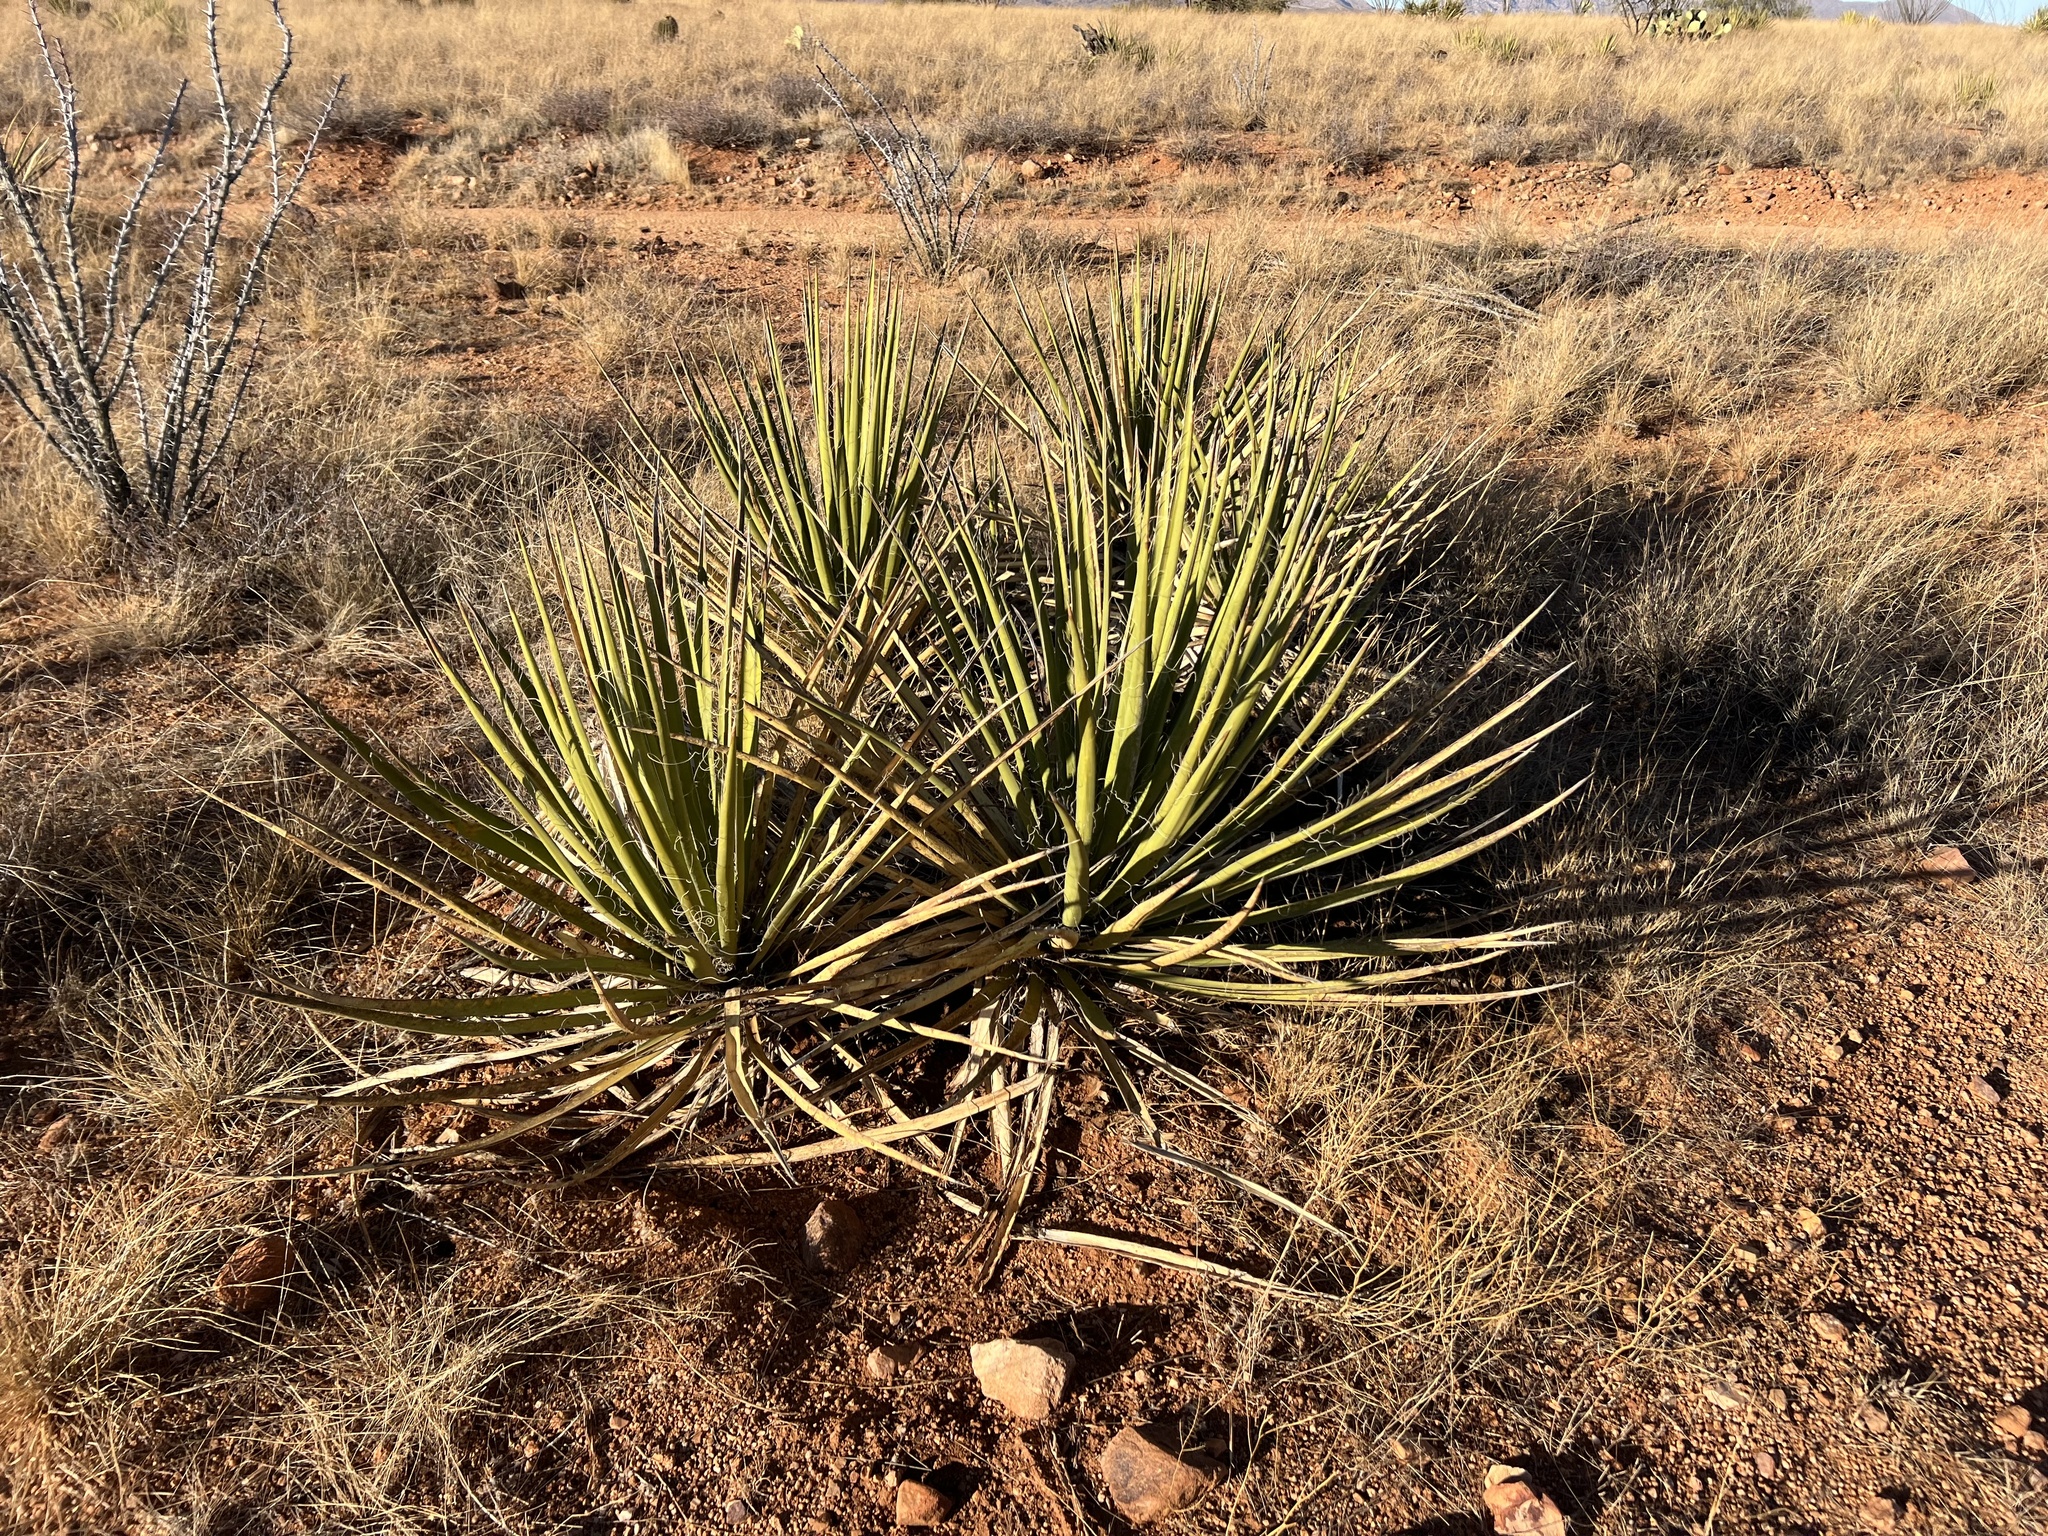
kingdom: Plantae
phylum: Tracheophyta
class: Liliopsida
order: Asparagales
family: Asparagaceae
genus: Yucca
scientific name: Yucca baccata
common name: Banana yucca
